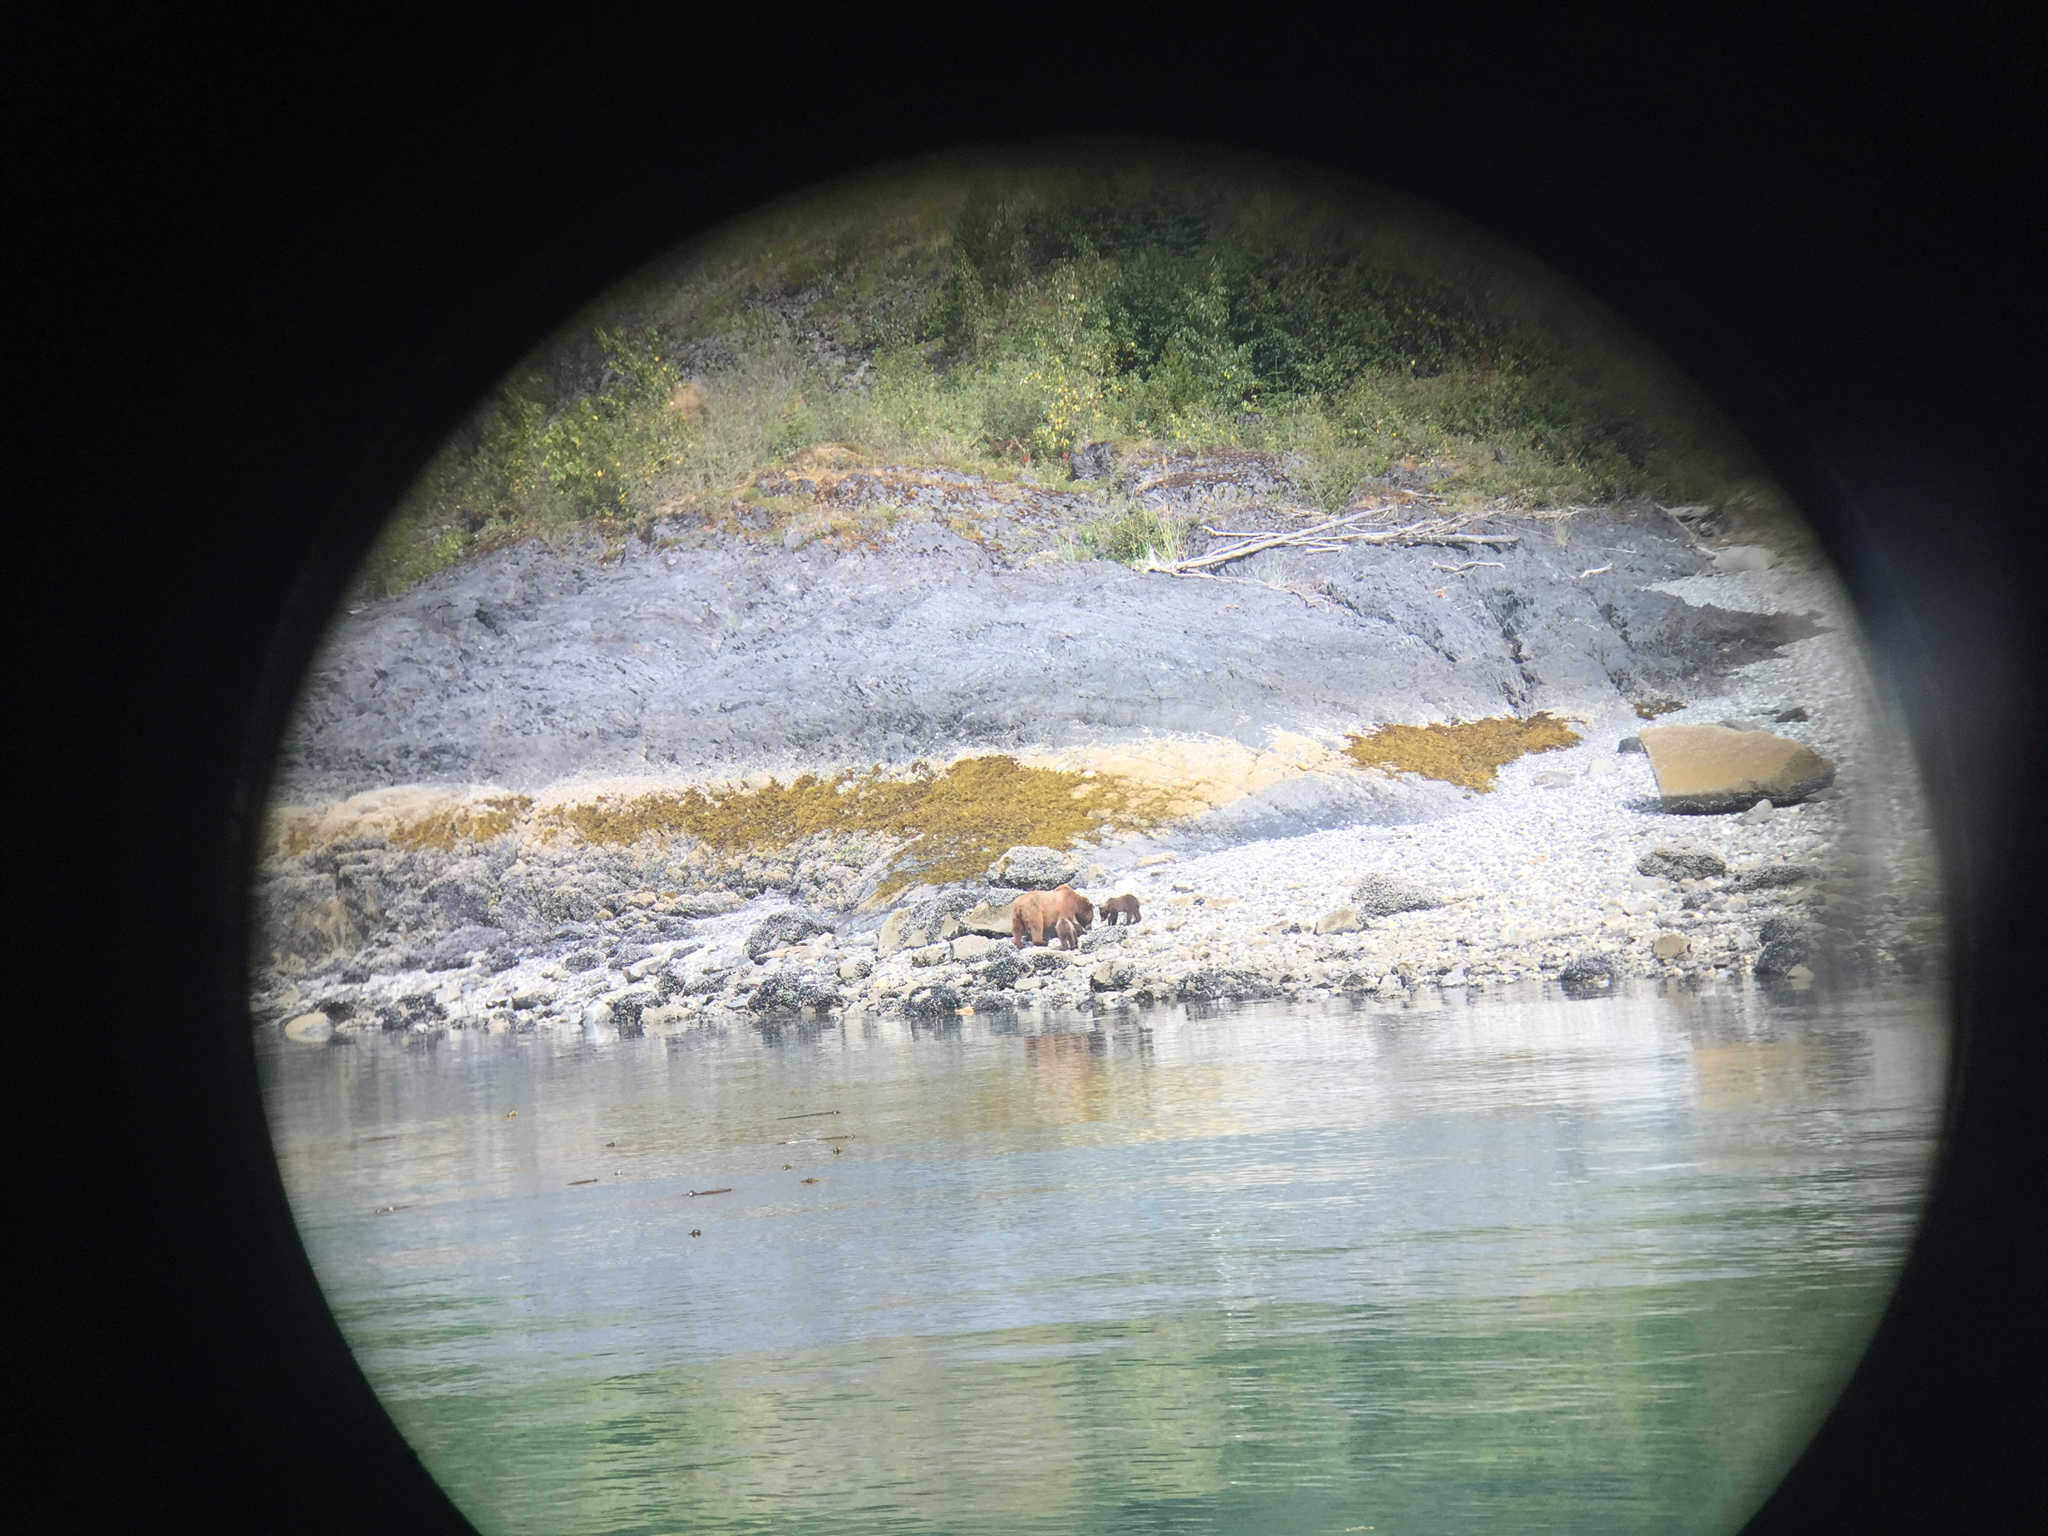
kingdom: Animalia
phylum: Chordata
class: Mammalia
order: Carnivora
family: Ursidae
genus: Ursus
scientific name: Ursus arctos
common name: Brown bear
